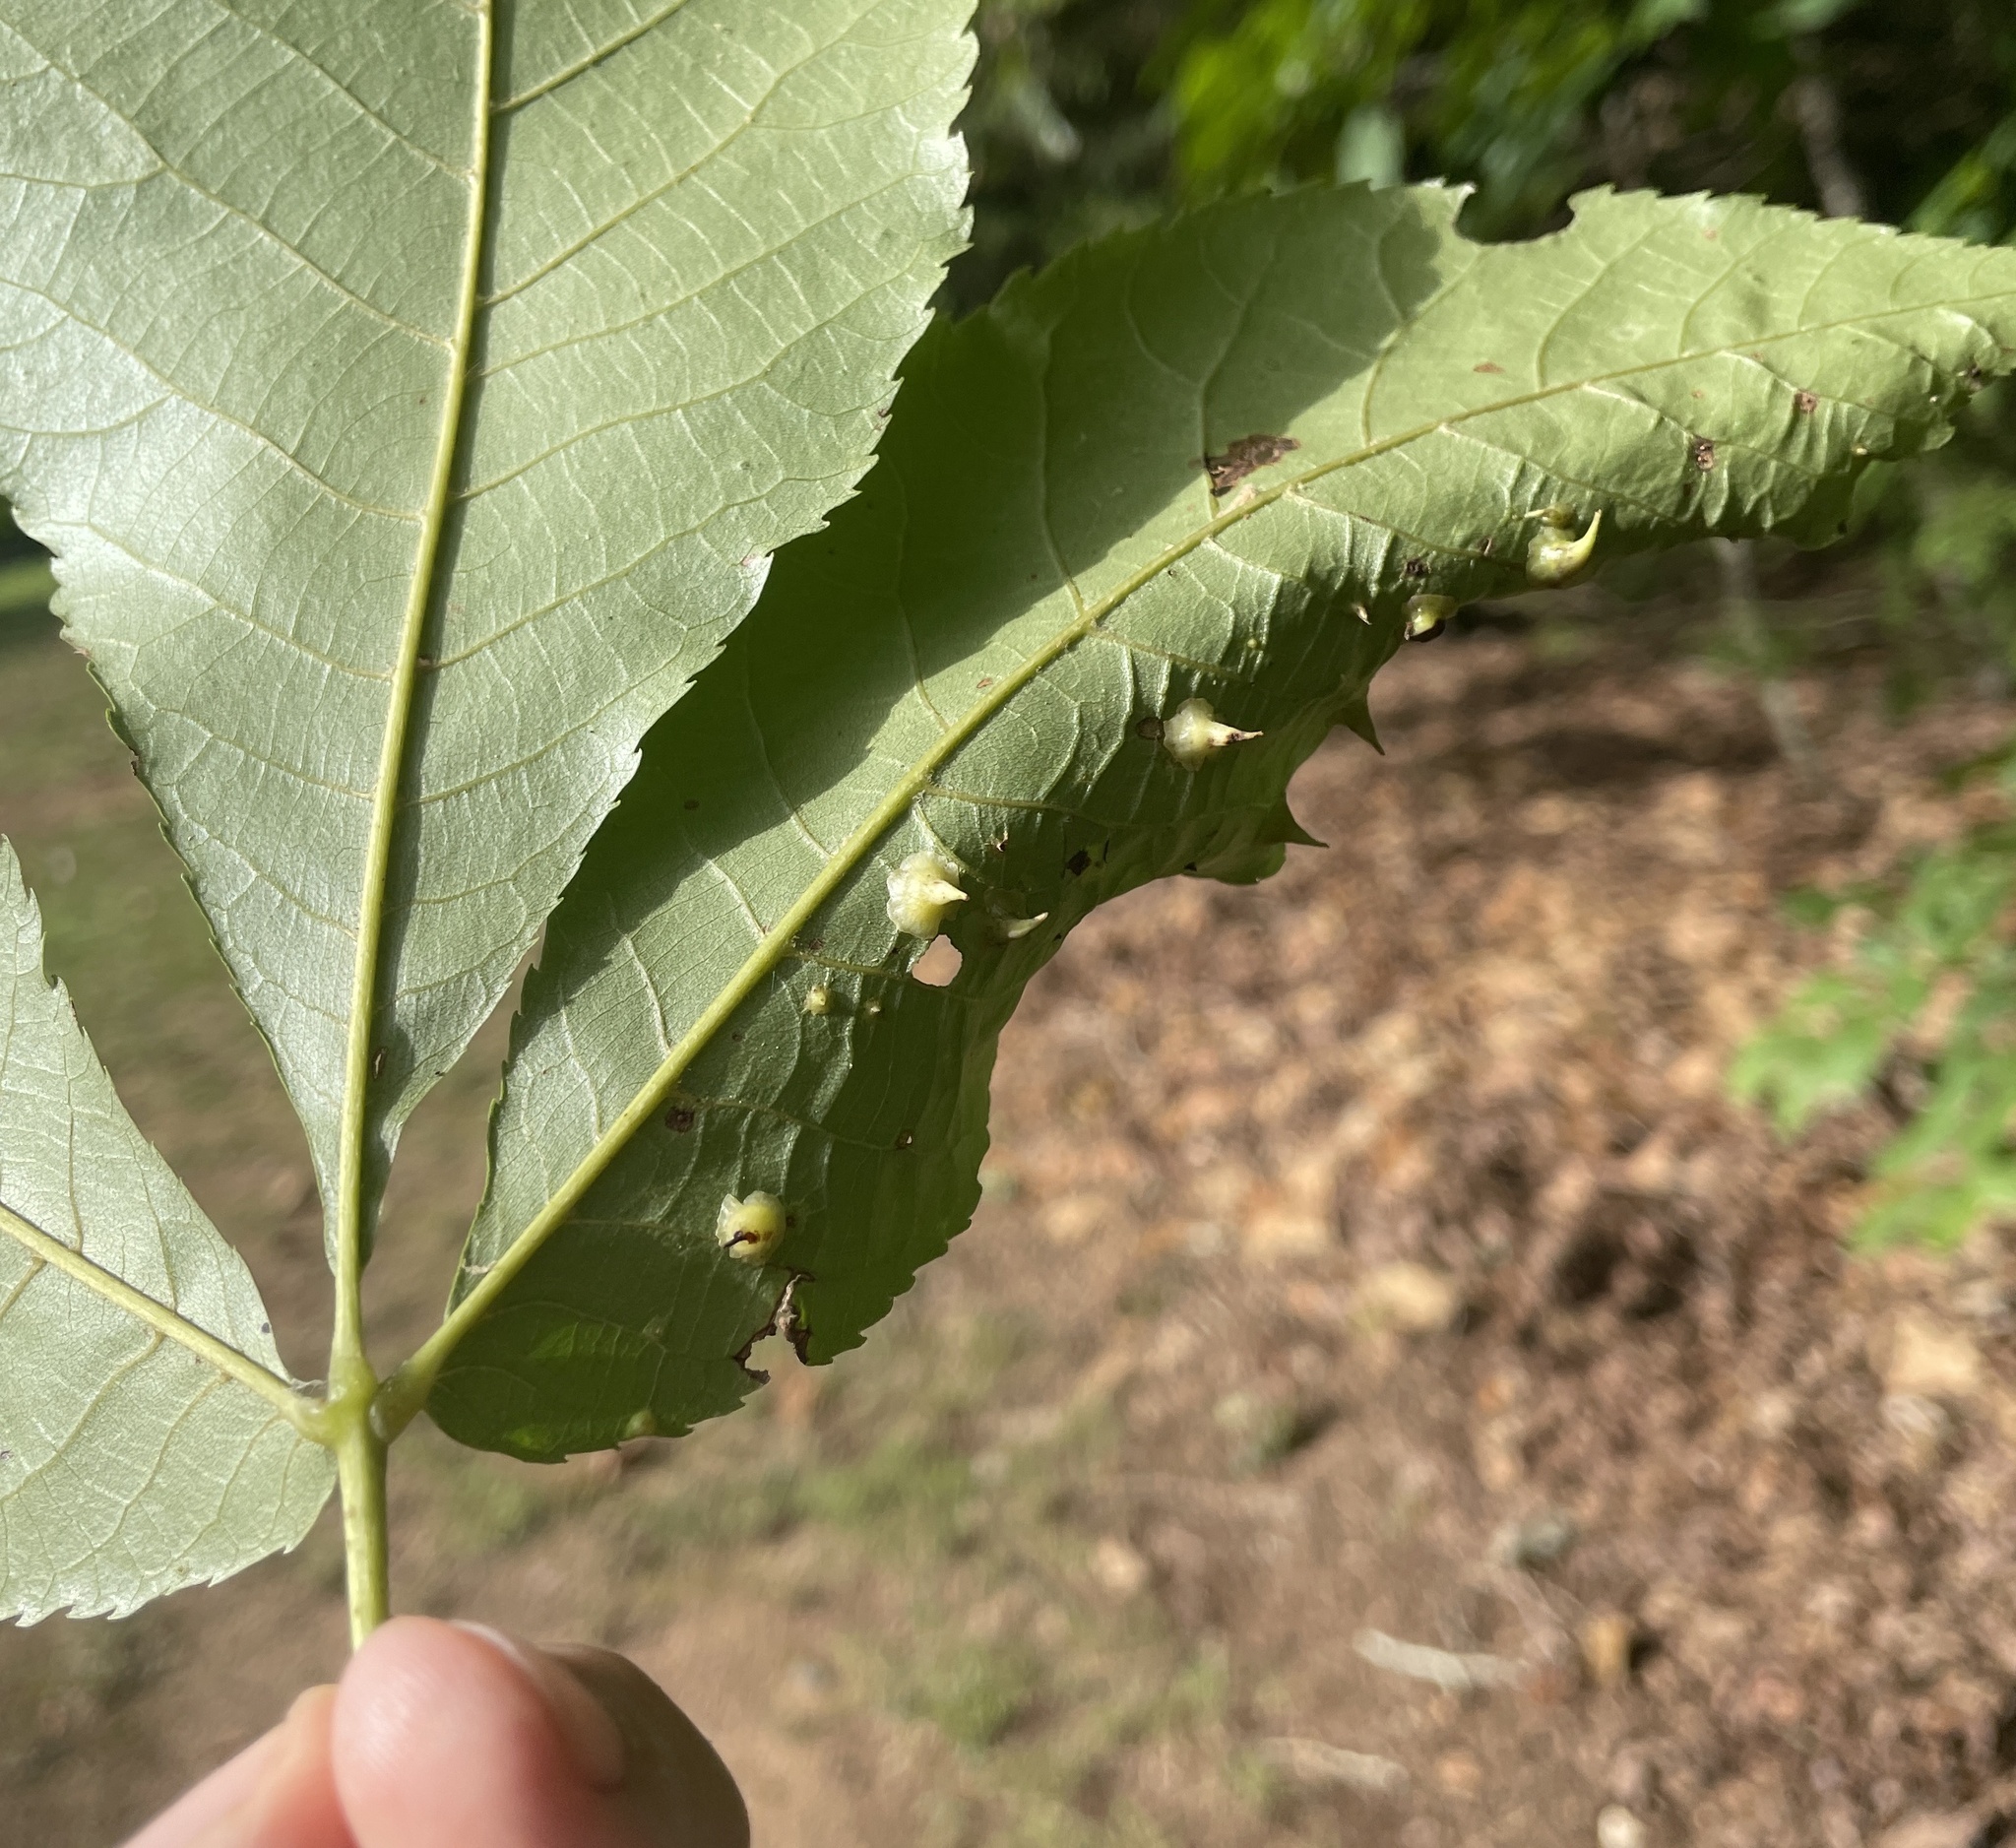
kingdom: Animalia
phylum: Arthropoda
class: Insecta
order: Diptera
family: Cecidomyiidae
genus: Caryomyia
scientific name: Caryomyia stellata
